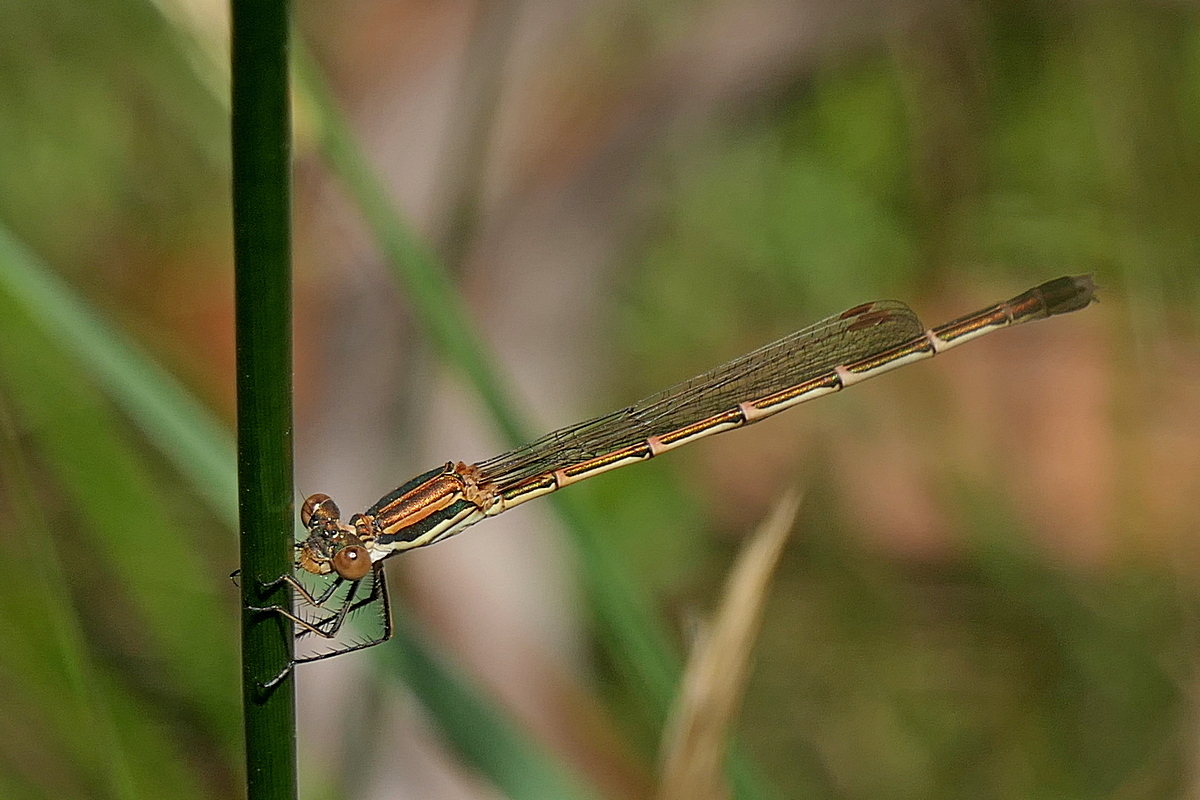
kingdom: Animalia
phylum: Arthropoda
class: Insecta
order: Odonata
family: Lestidae
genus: Austrolestes
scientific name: Austrolestes analis
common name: Slender ringtail
